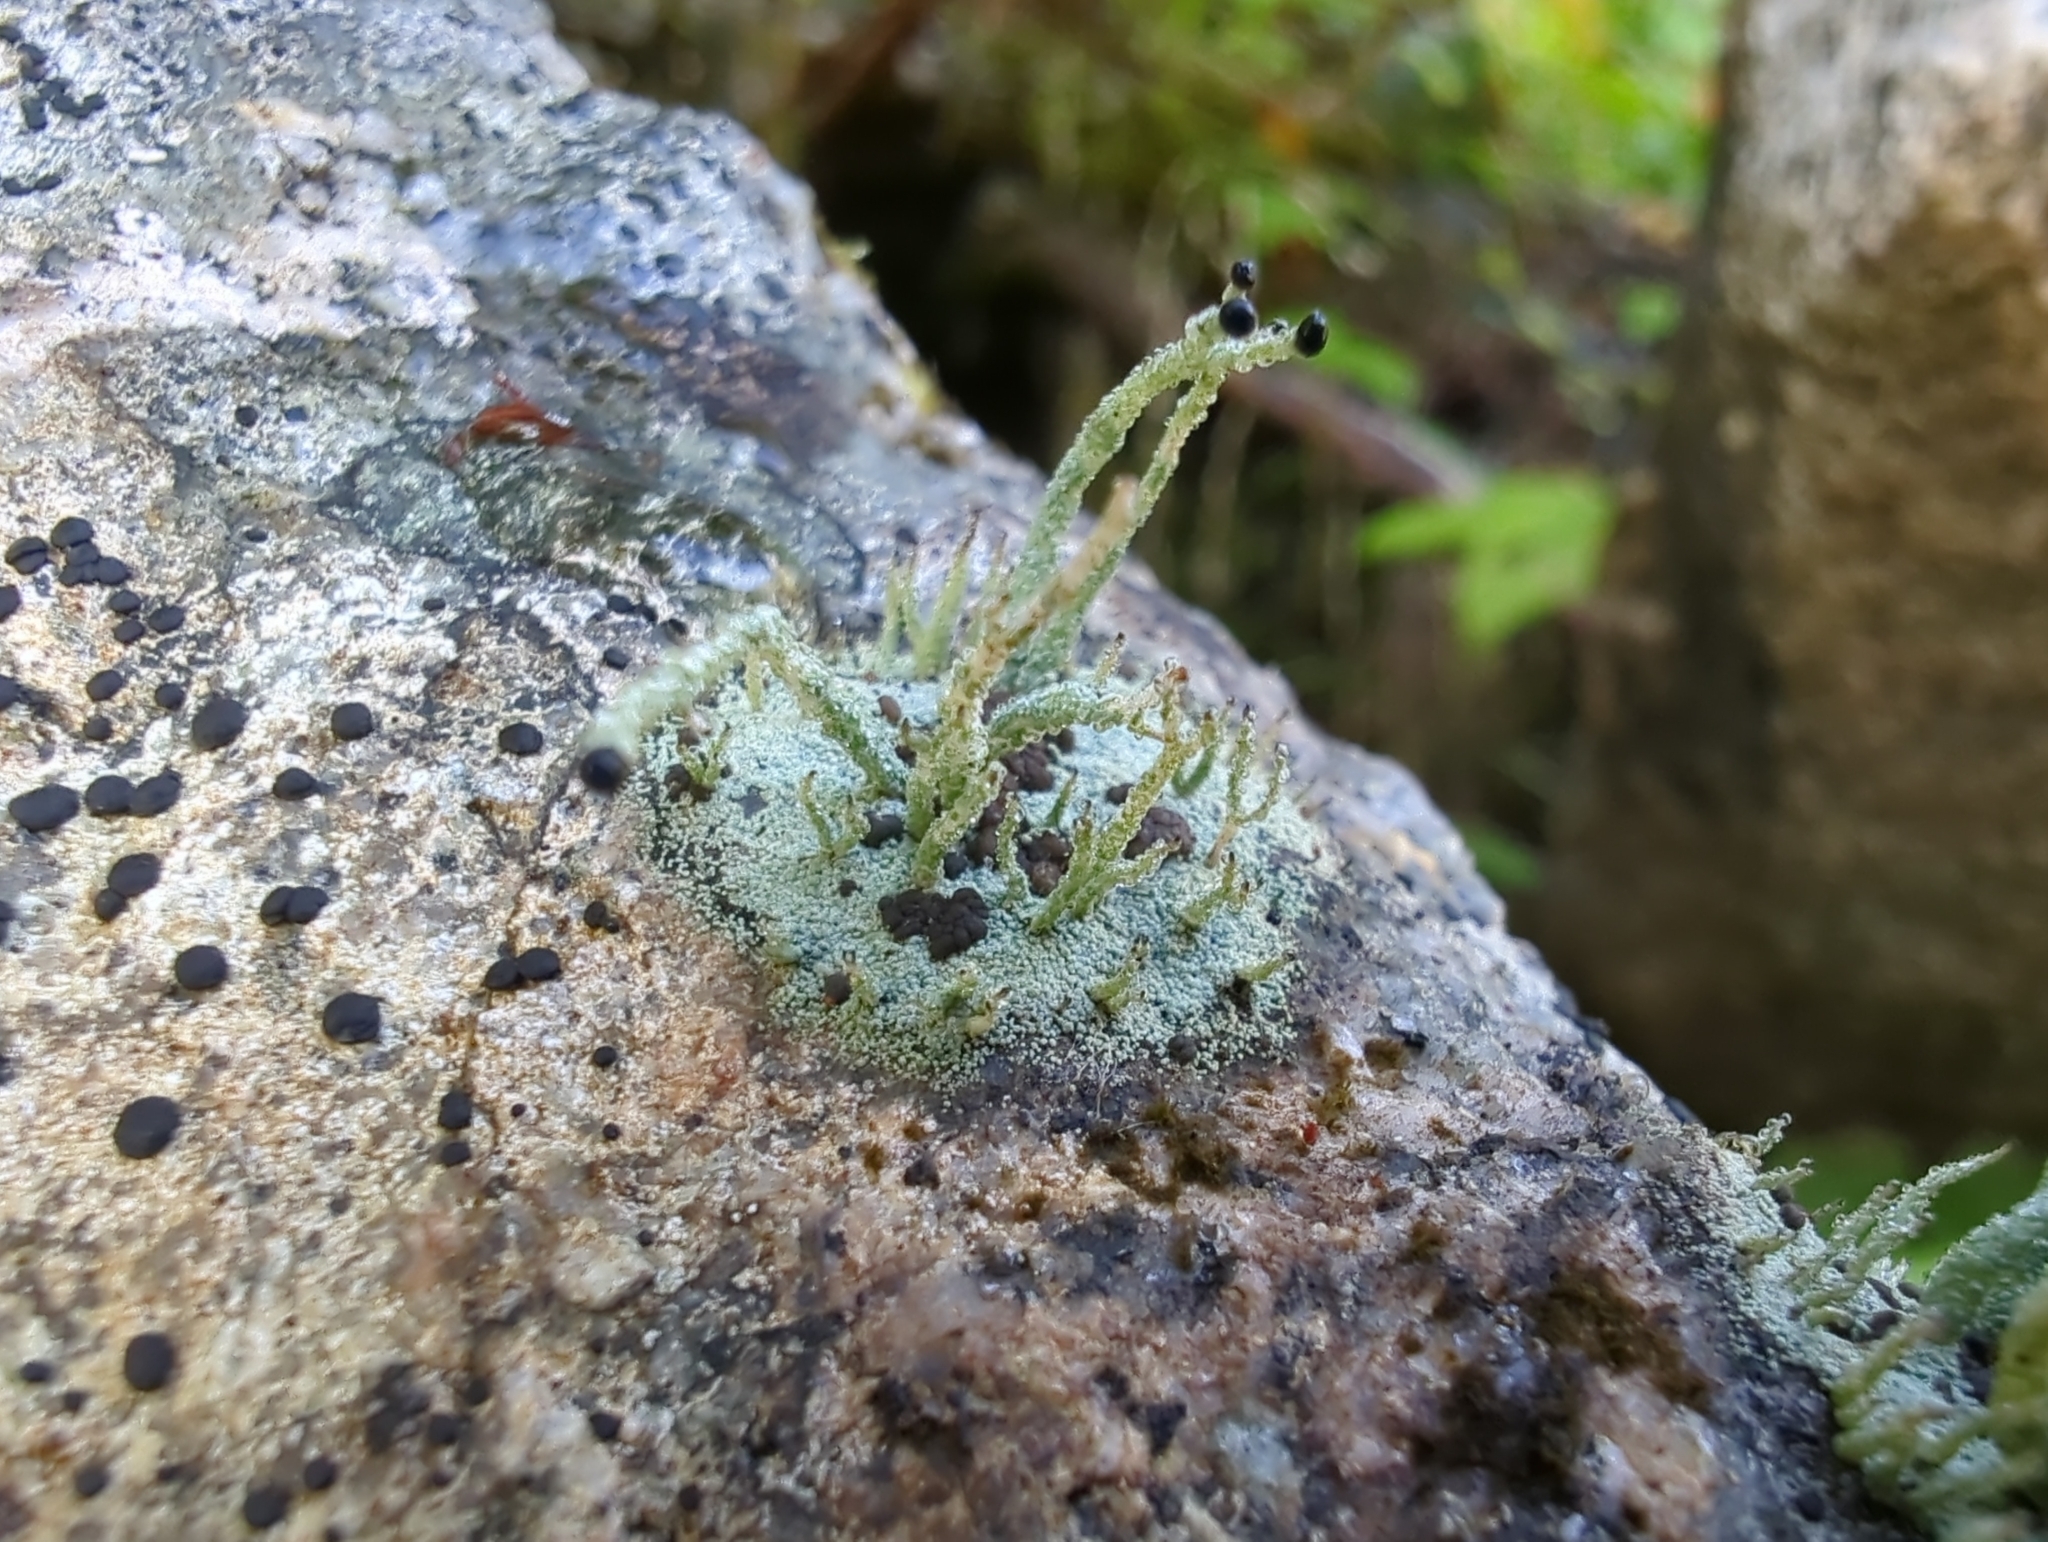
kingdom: Fungi
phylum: Ascomycota
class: Lecanoromycetes
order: Lecanorales
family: Cladoniaceae
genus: Pilophorus
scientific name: Pilophorus acicularis
